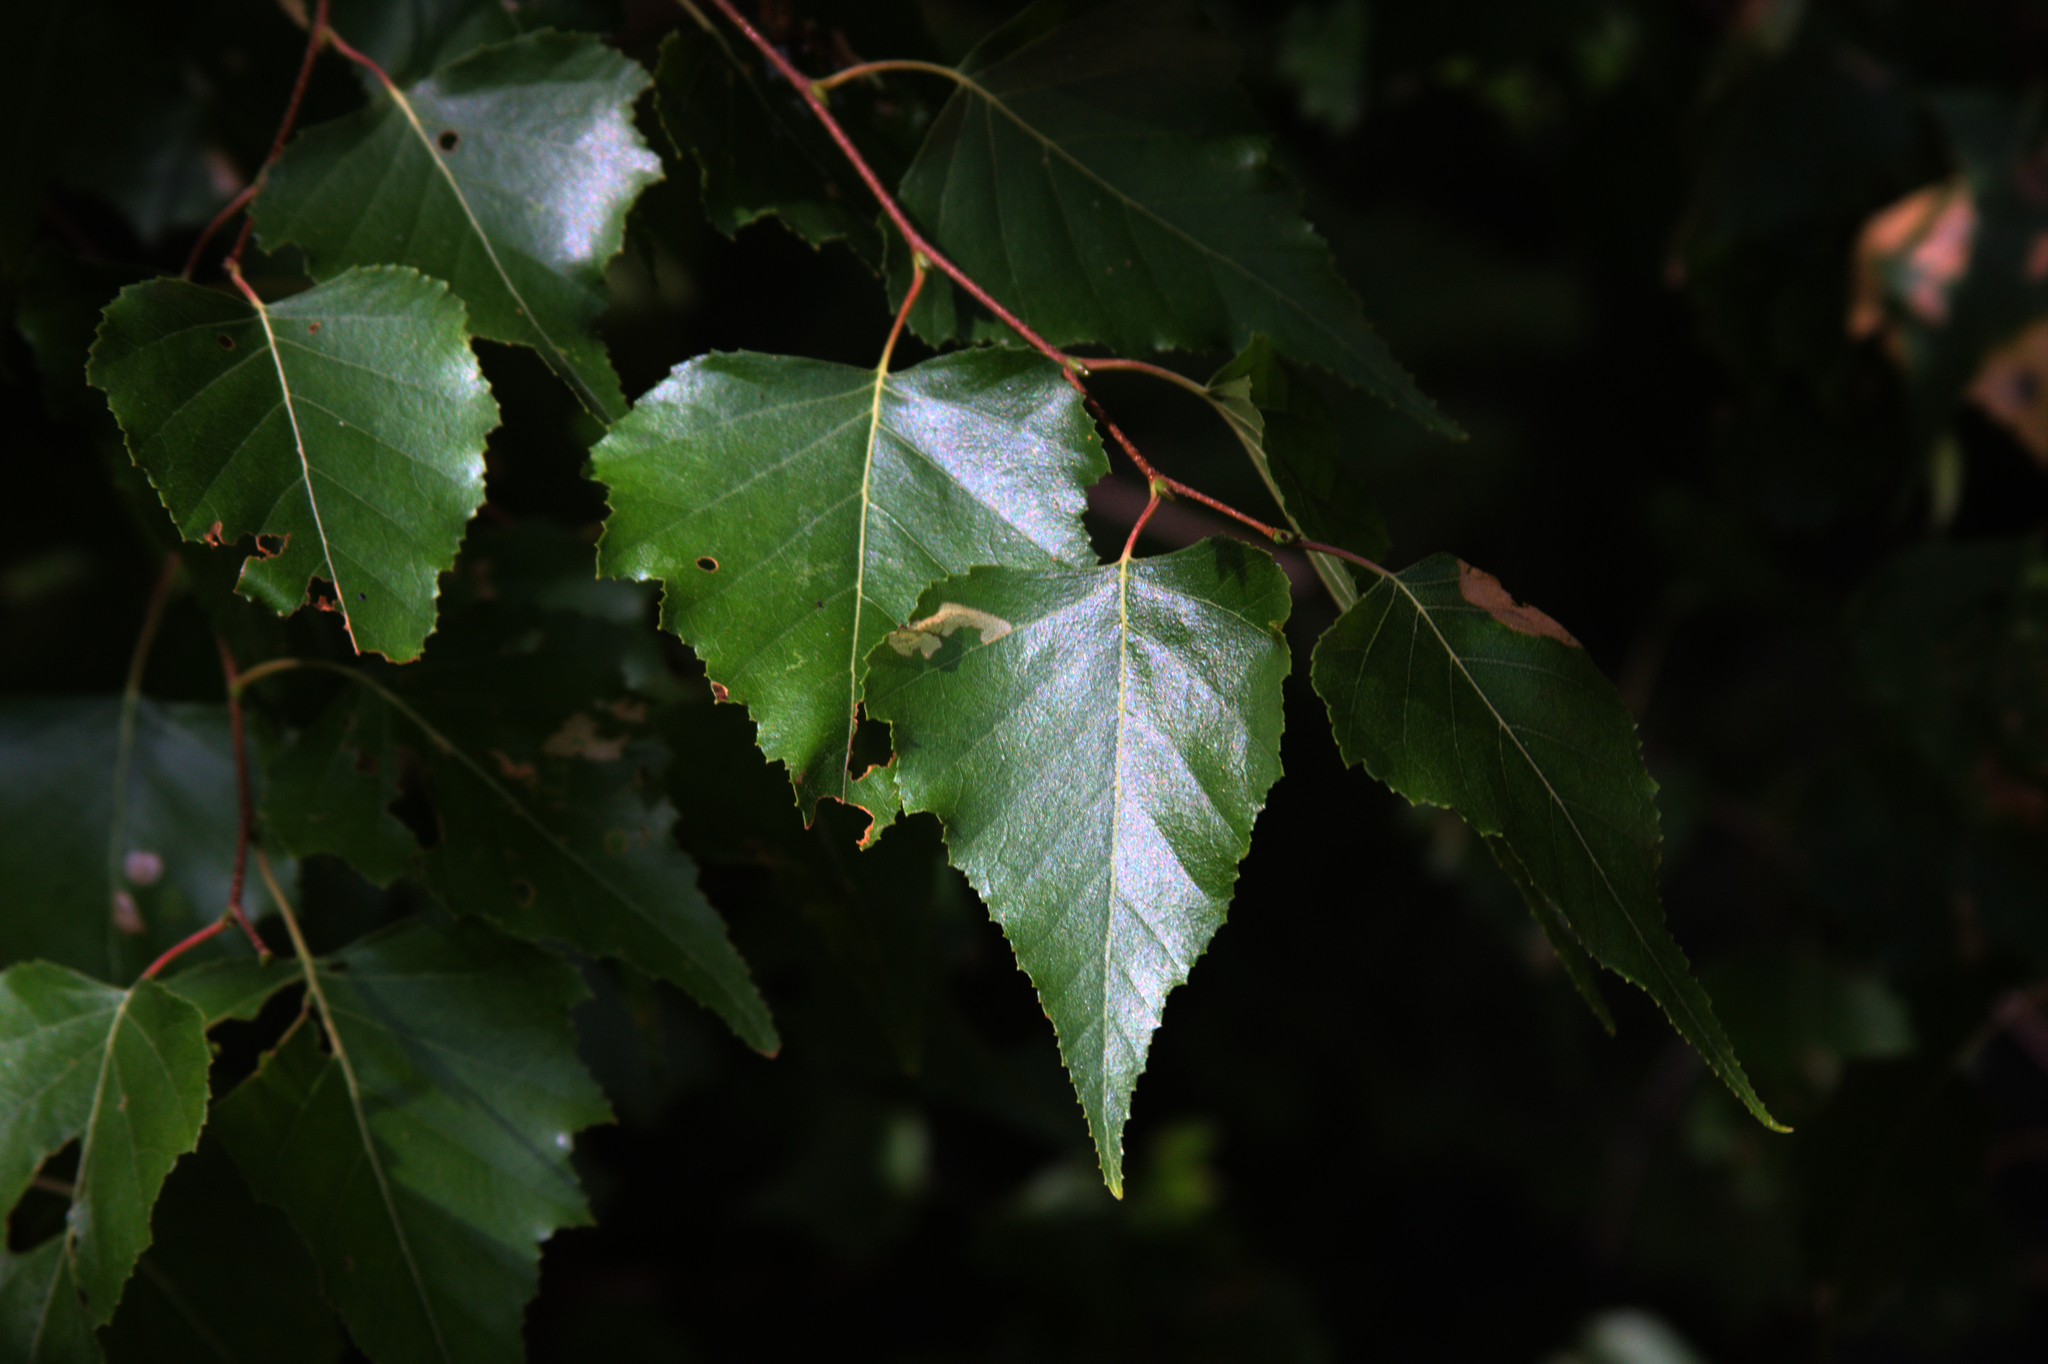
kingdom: Plantae
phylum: Tracheophyta
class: Magnoliopsida
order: Fagales
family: Betulaceae
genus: Betula
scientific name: Betula populifolia
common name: Fire birch
